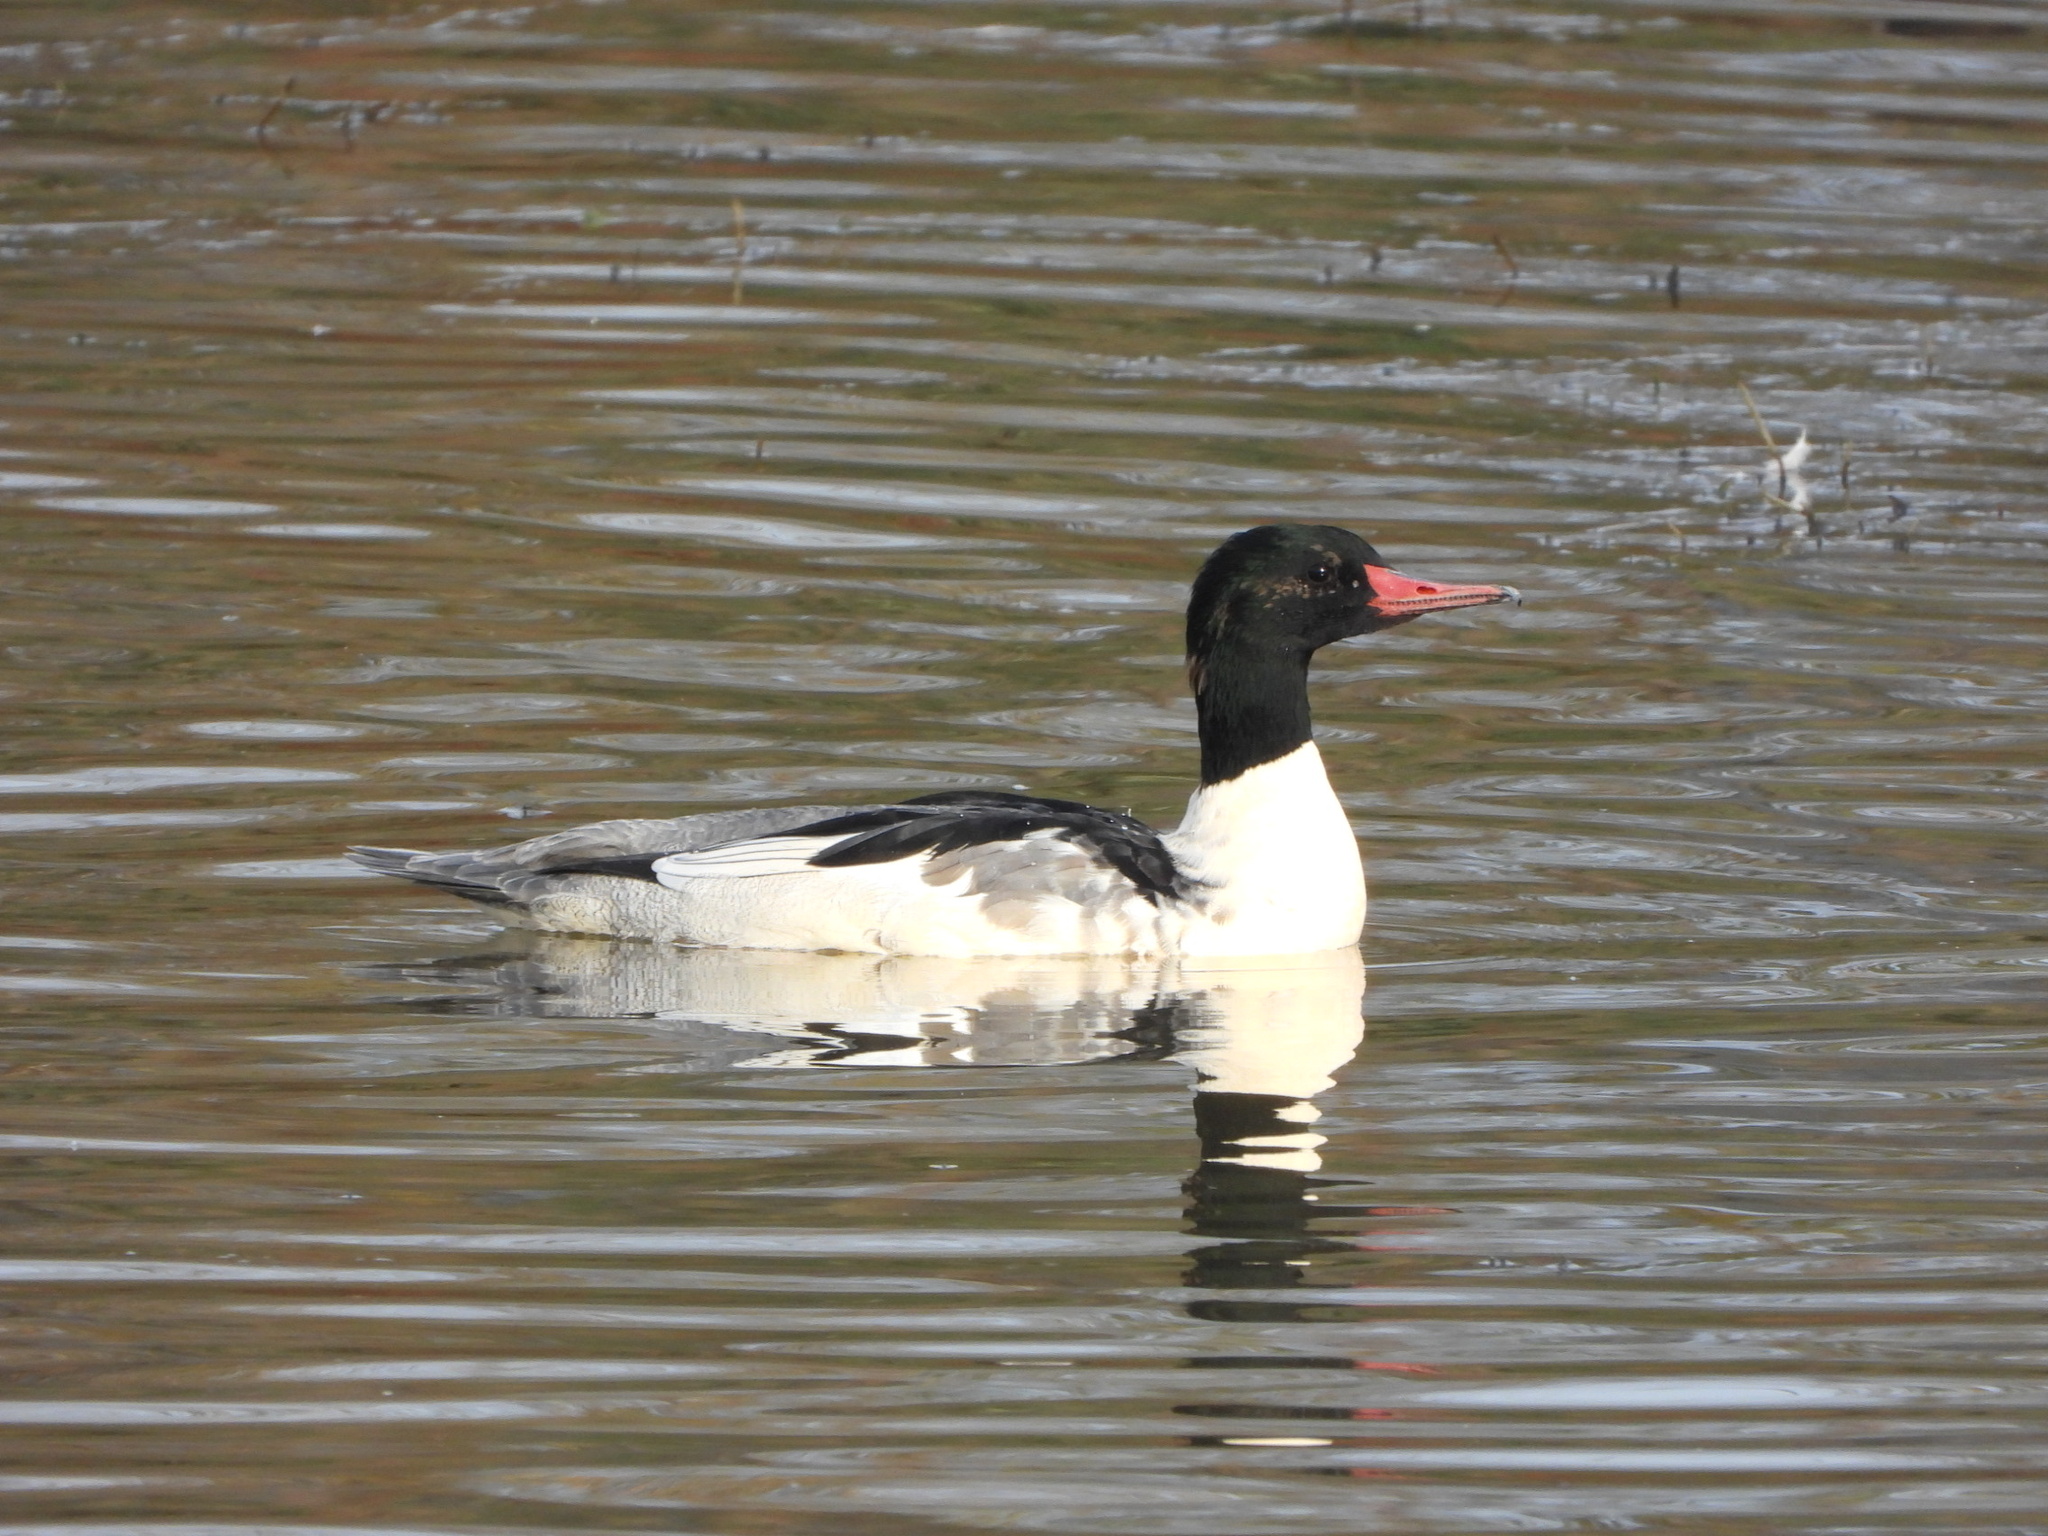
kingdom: Animalia
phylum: Chordata
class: Aves
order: Anseriformes
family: Anatidae
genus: Mergus
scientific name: Mergus merganser
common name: Common merganser
